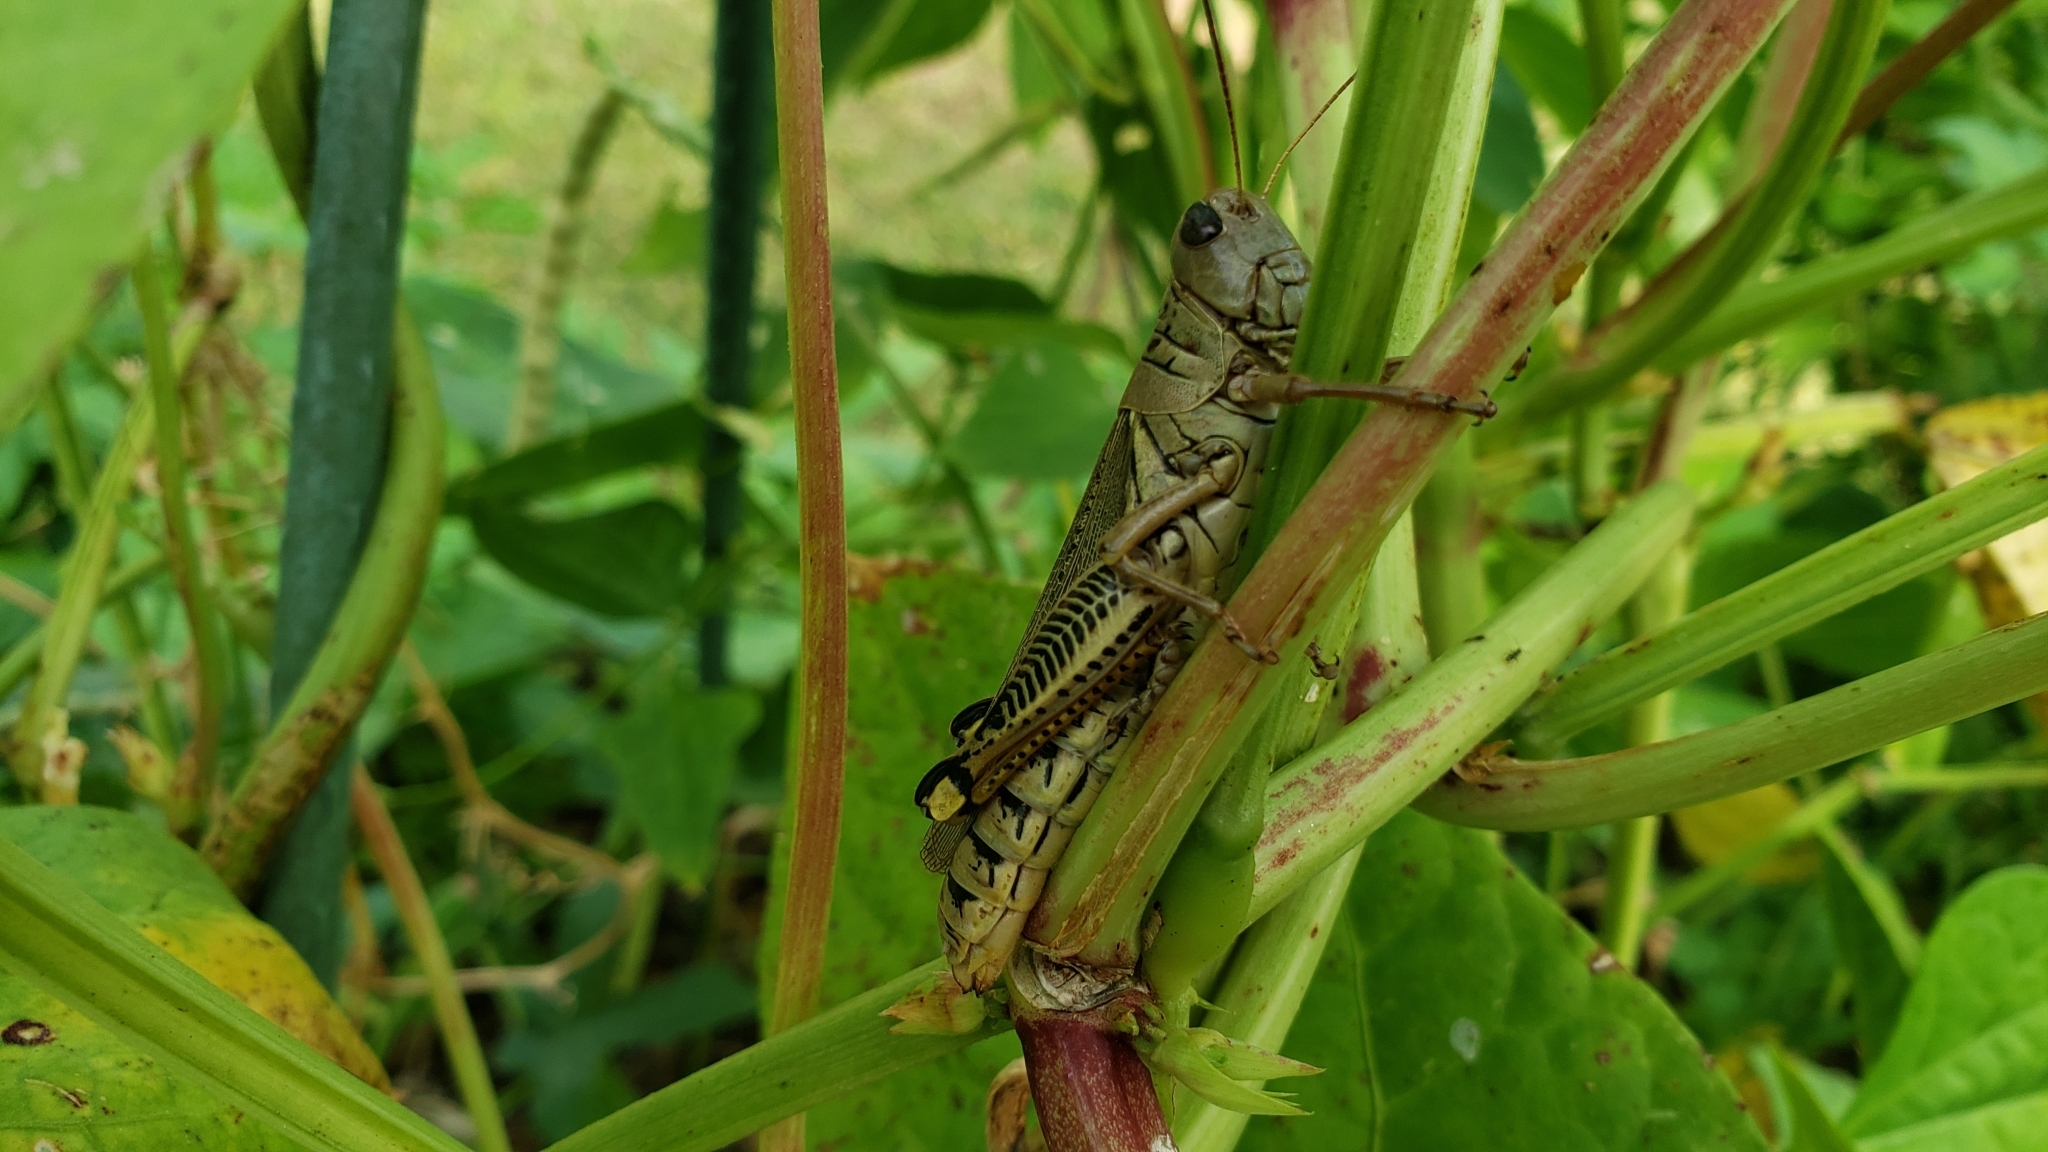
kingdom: Animalia
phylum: Arthropoda
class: Insecta
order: Orthoptera
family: Acrididae
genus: Melanoplus
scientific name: Melanoplus differentialis
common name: Differential grasshopper
